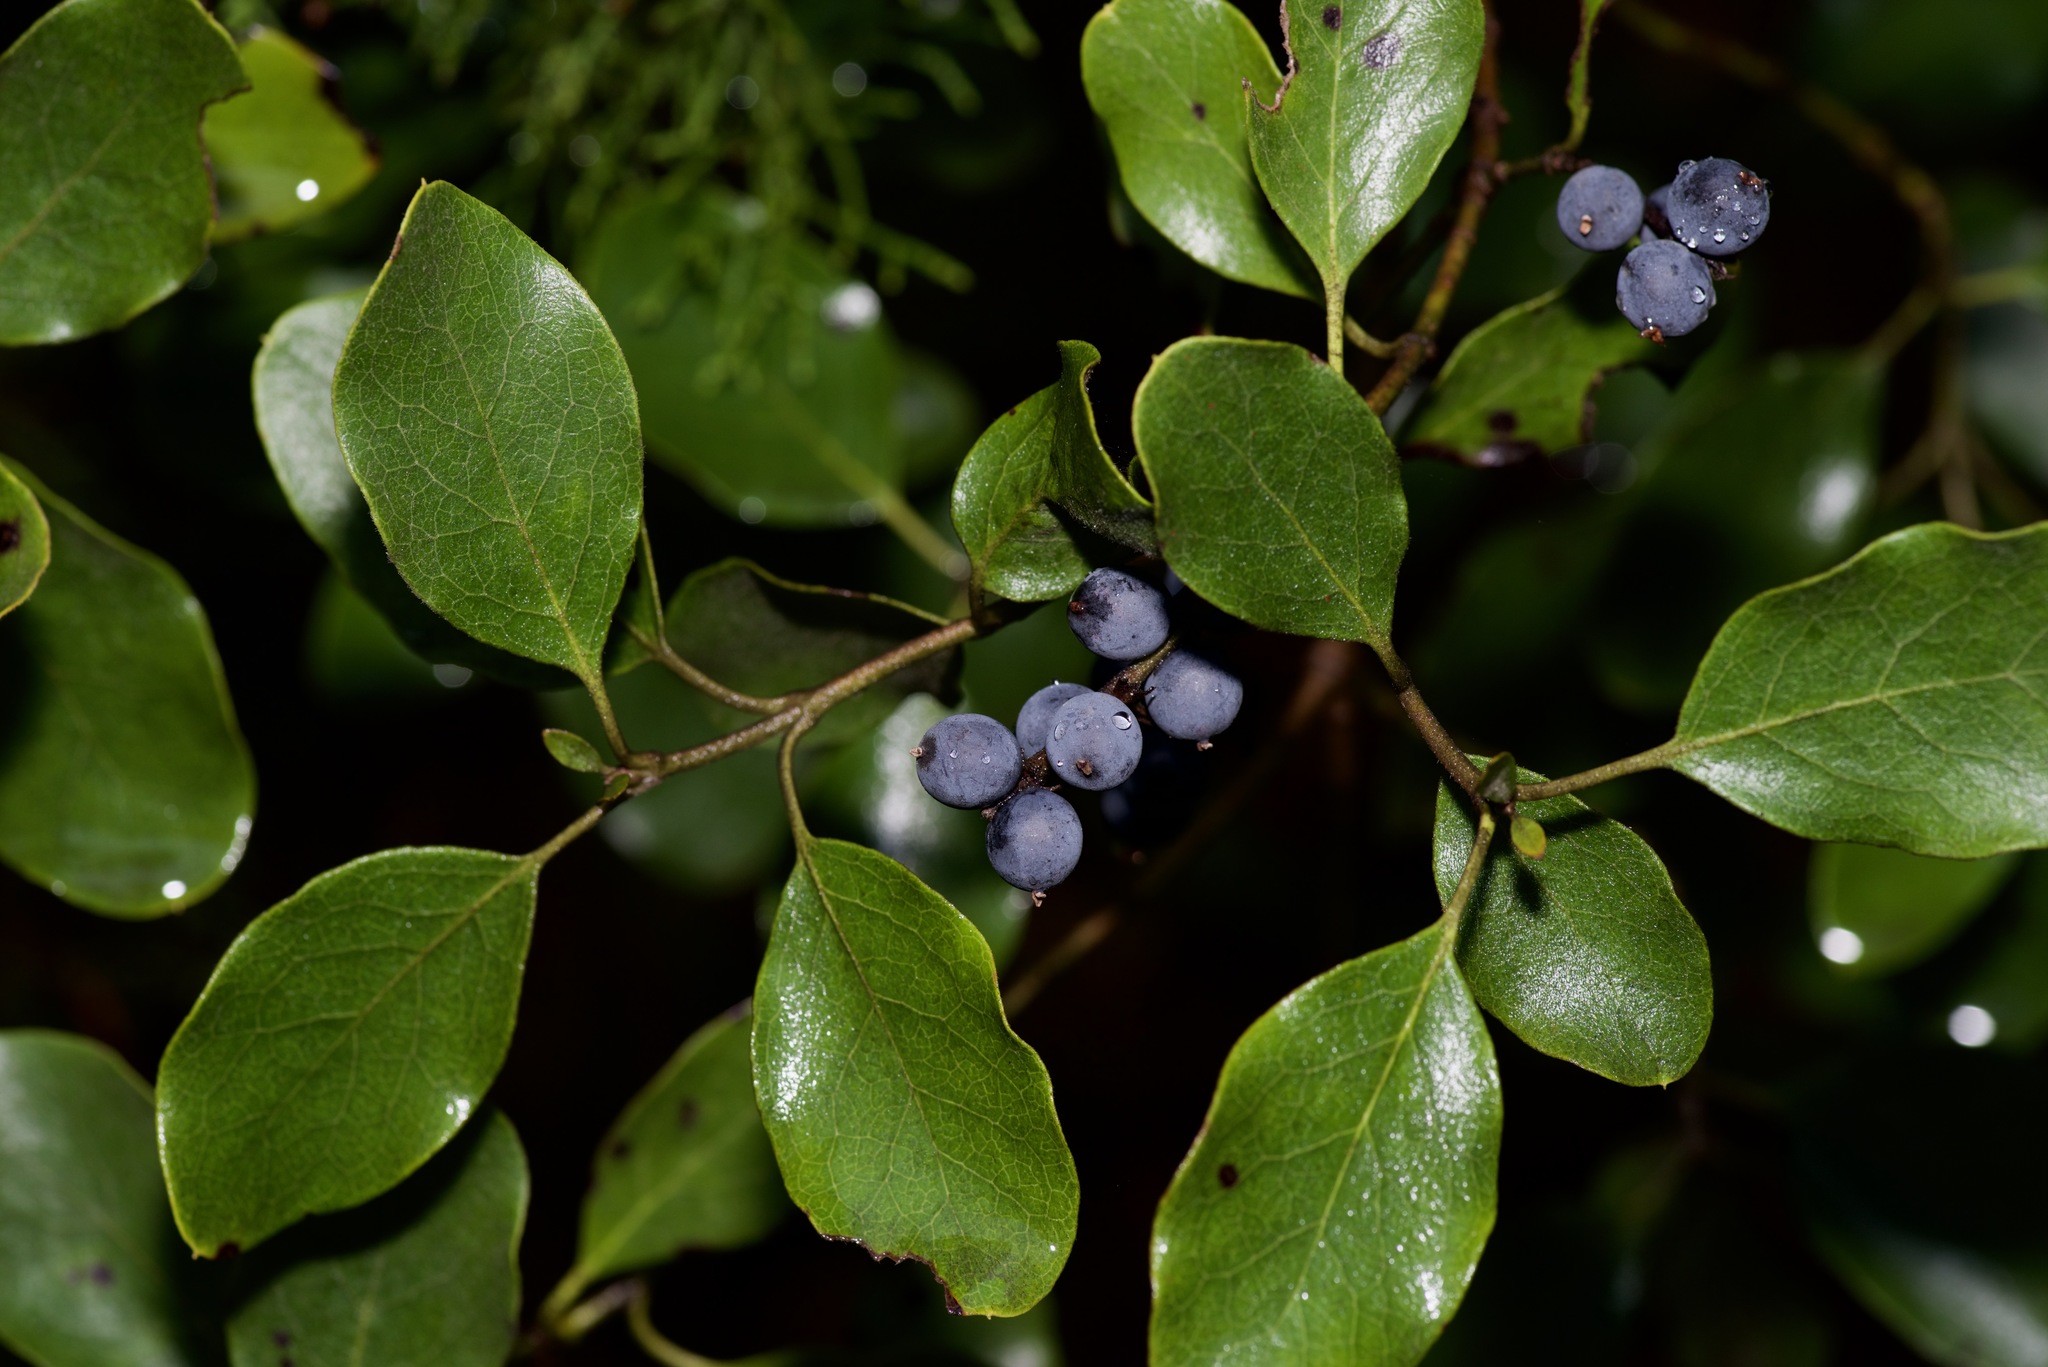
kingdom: Plantae
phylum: Tracheophyta
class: Magnoliopsida
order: Garryales
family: Garryaceae
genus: Garrya
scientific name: Garrya lindheimeri
